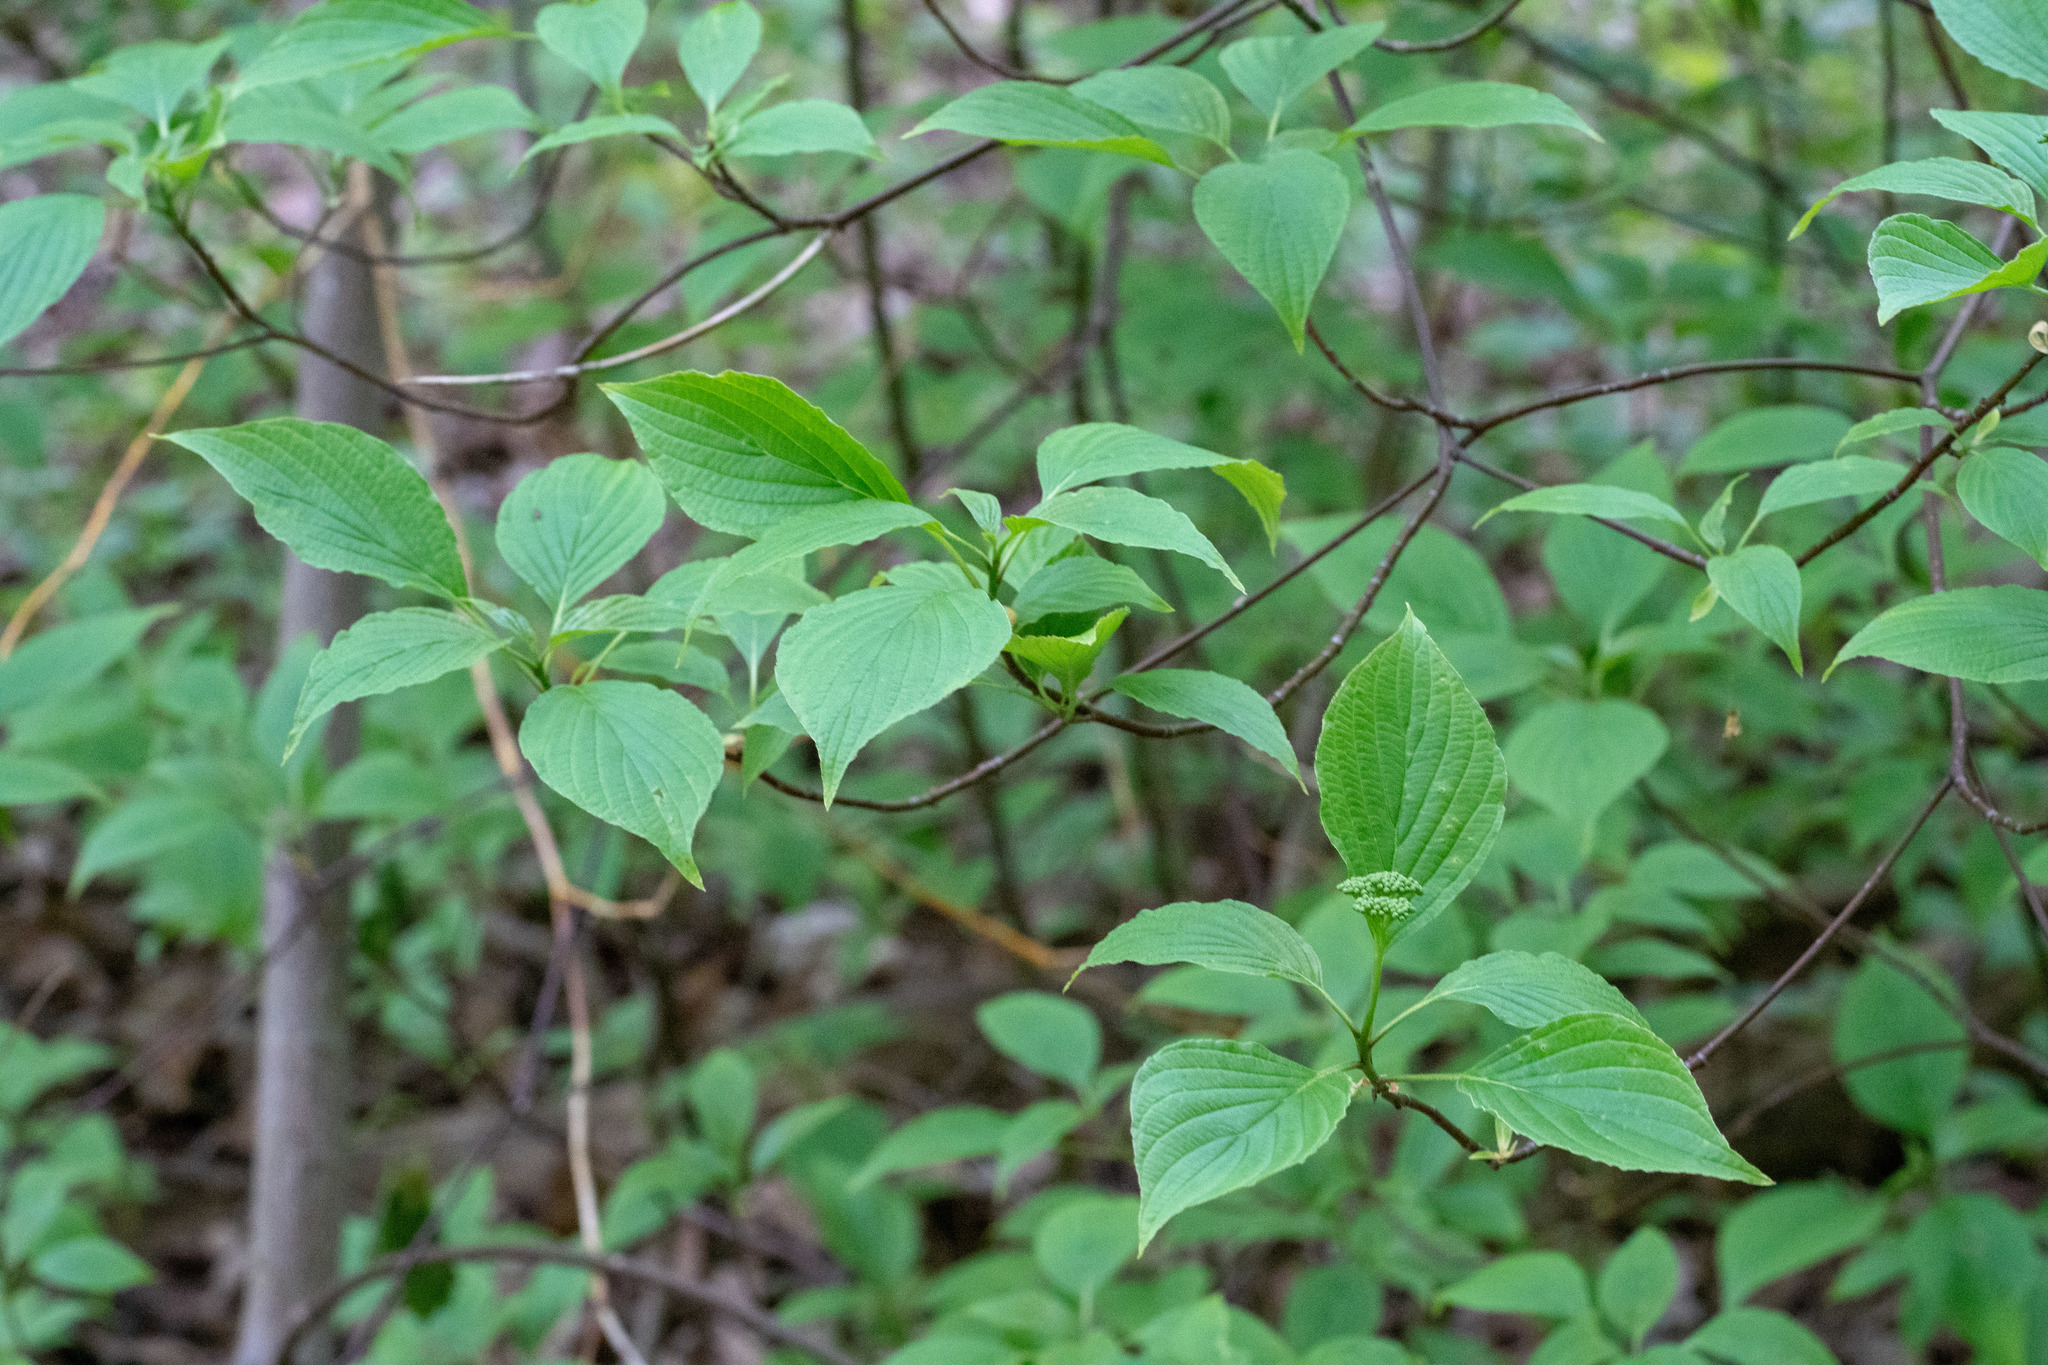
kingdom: Plantae
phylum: Tracheophyta
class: Magnoliopsida
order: Cornales
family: Cornaceae
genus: Cornus
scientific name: Cornus alternifolia
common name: Pagoda dogwood
